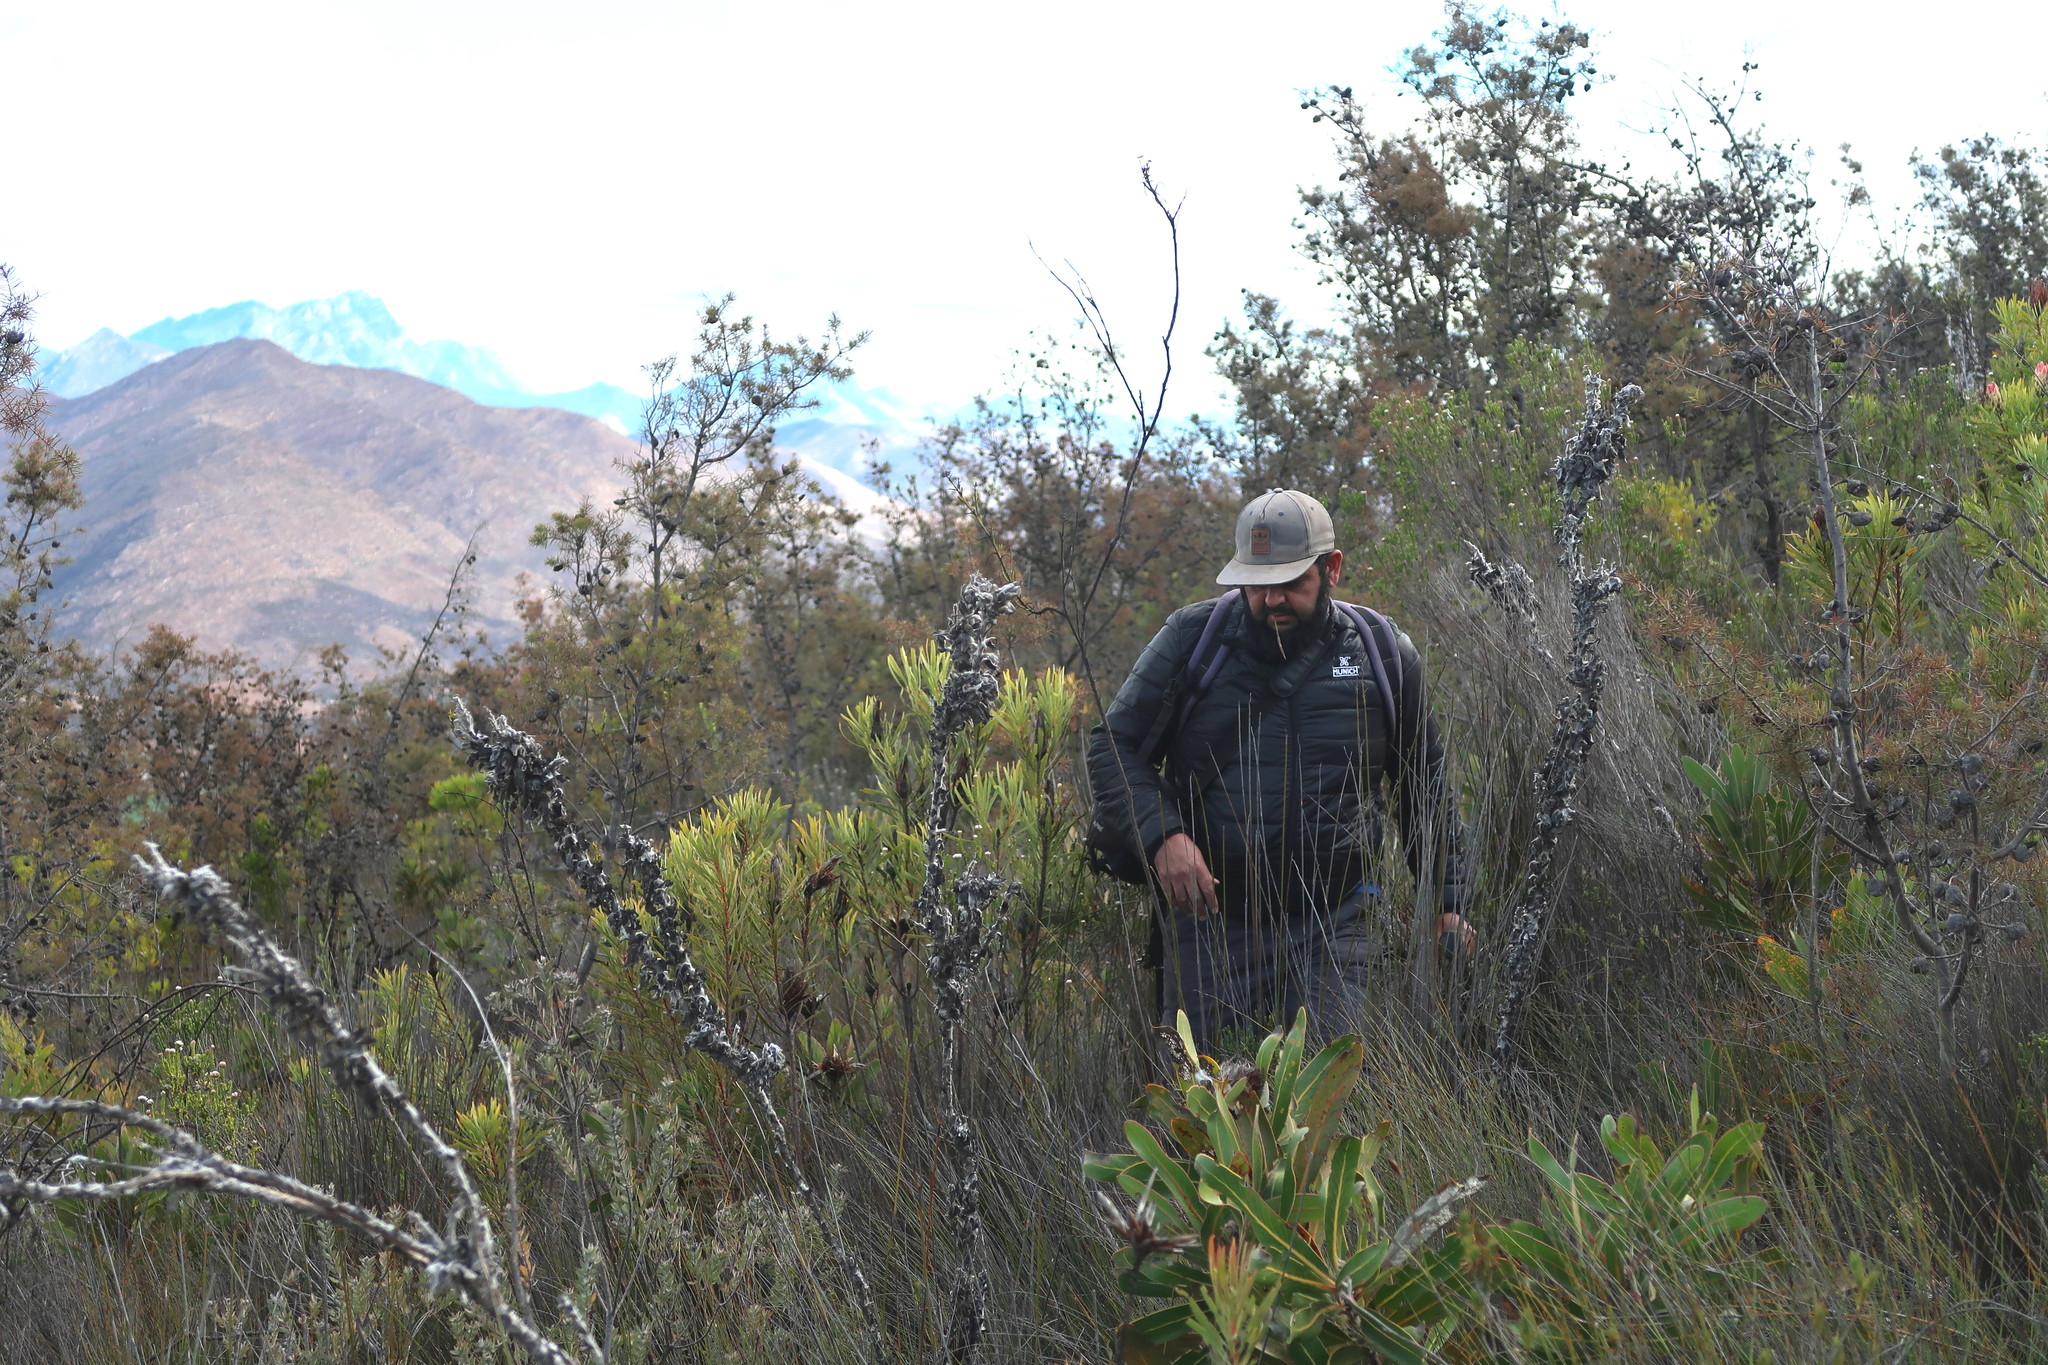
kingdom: Plantae
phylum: Tracheophyta
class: Magnoliopsida
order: Proteales
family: Proteaceae
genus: Hakea
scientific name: Hakea sericea
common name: Needle bush
